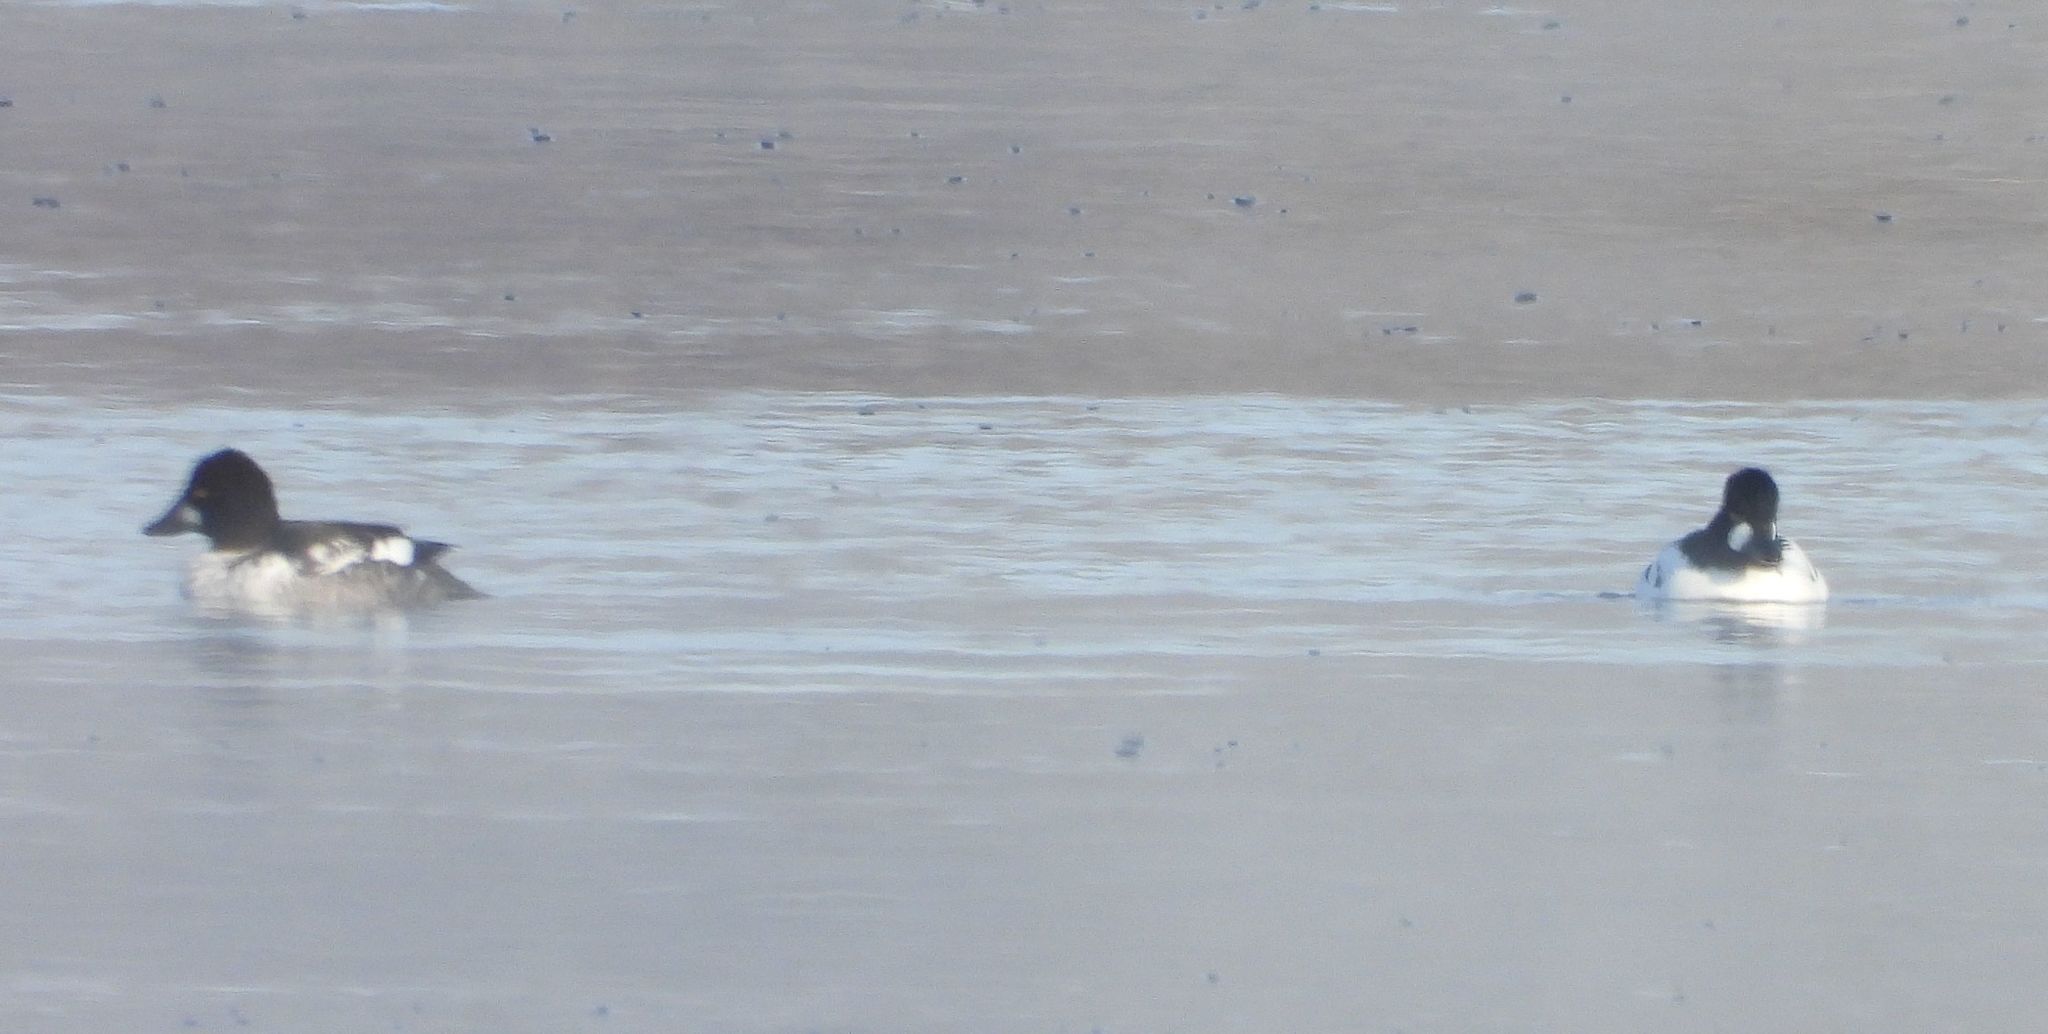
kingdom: Animalia
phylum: Chordata
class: Aves
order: Anseriformes
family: Anatidae
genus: Bucephala
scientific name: Bucephala clangula
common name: Common goldeneye
